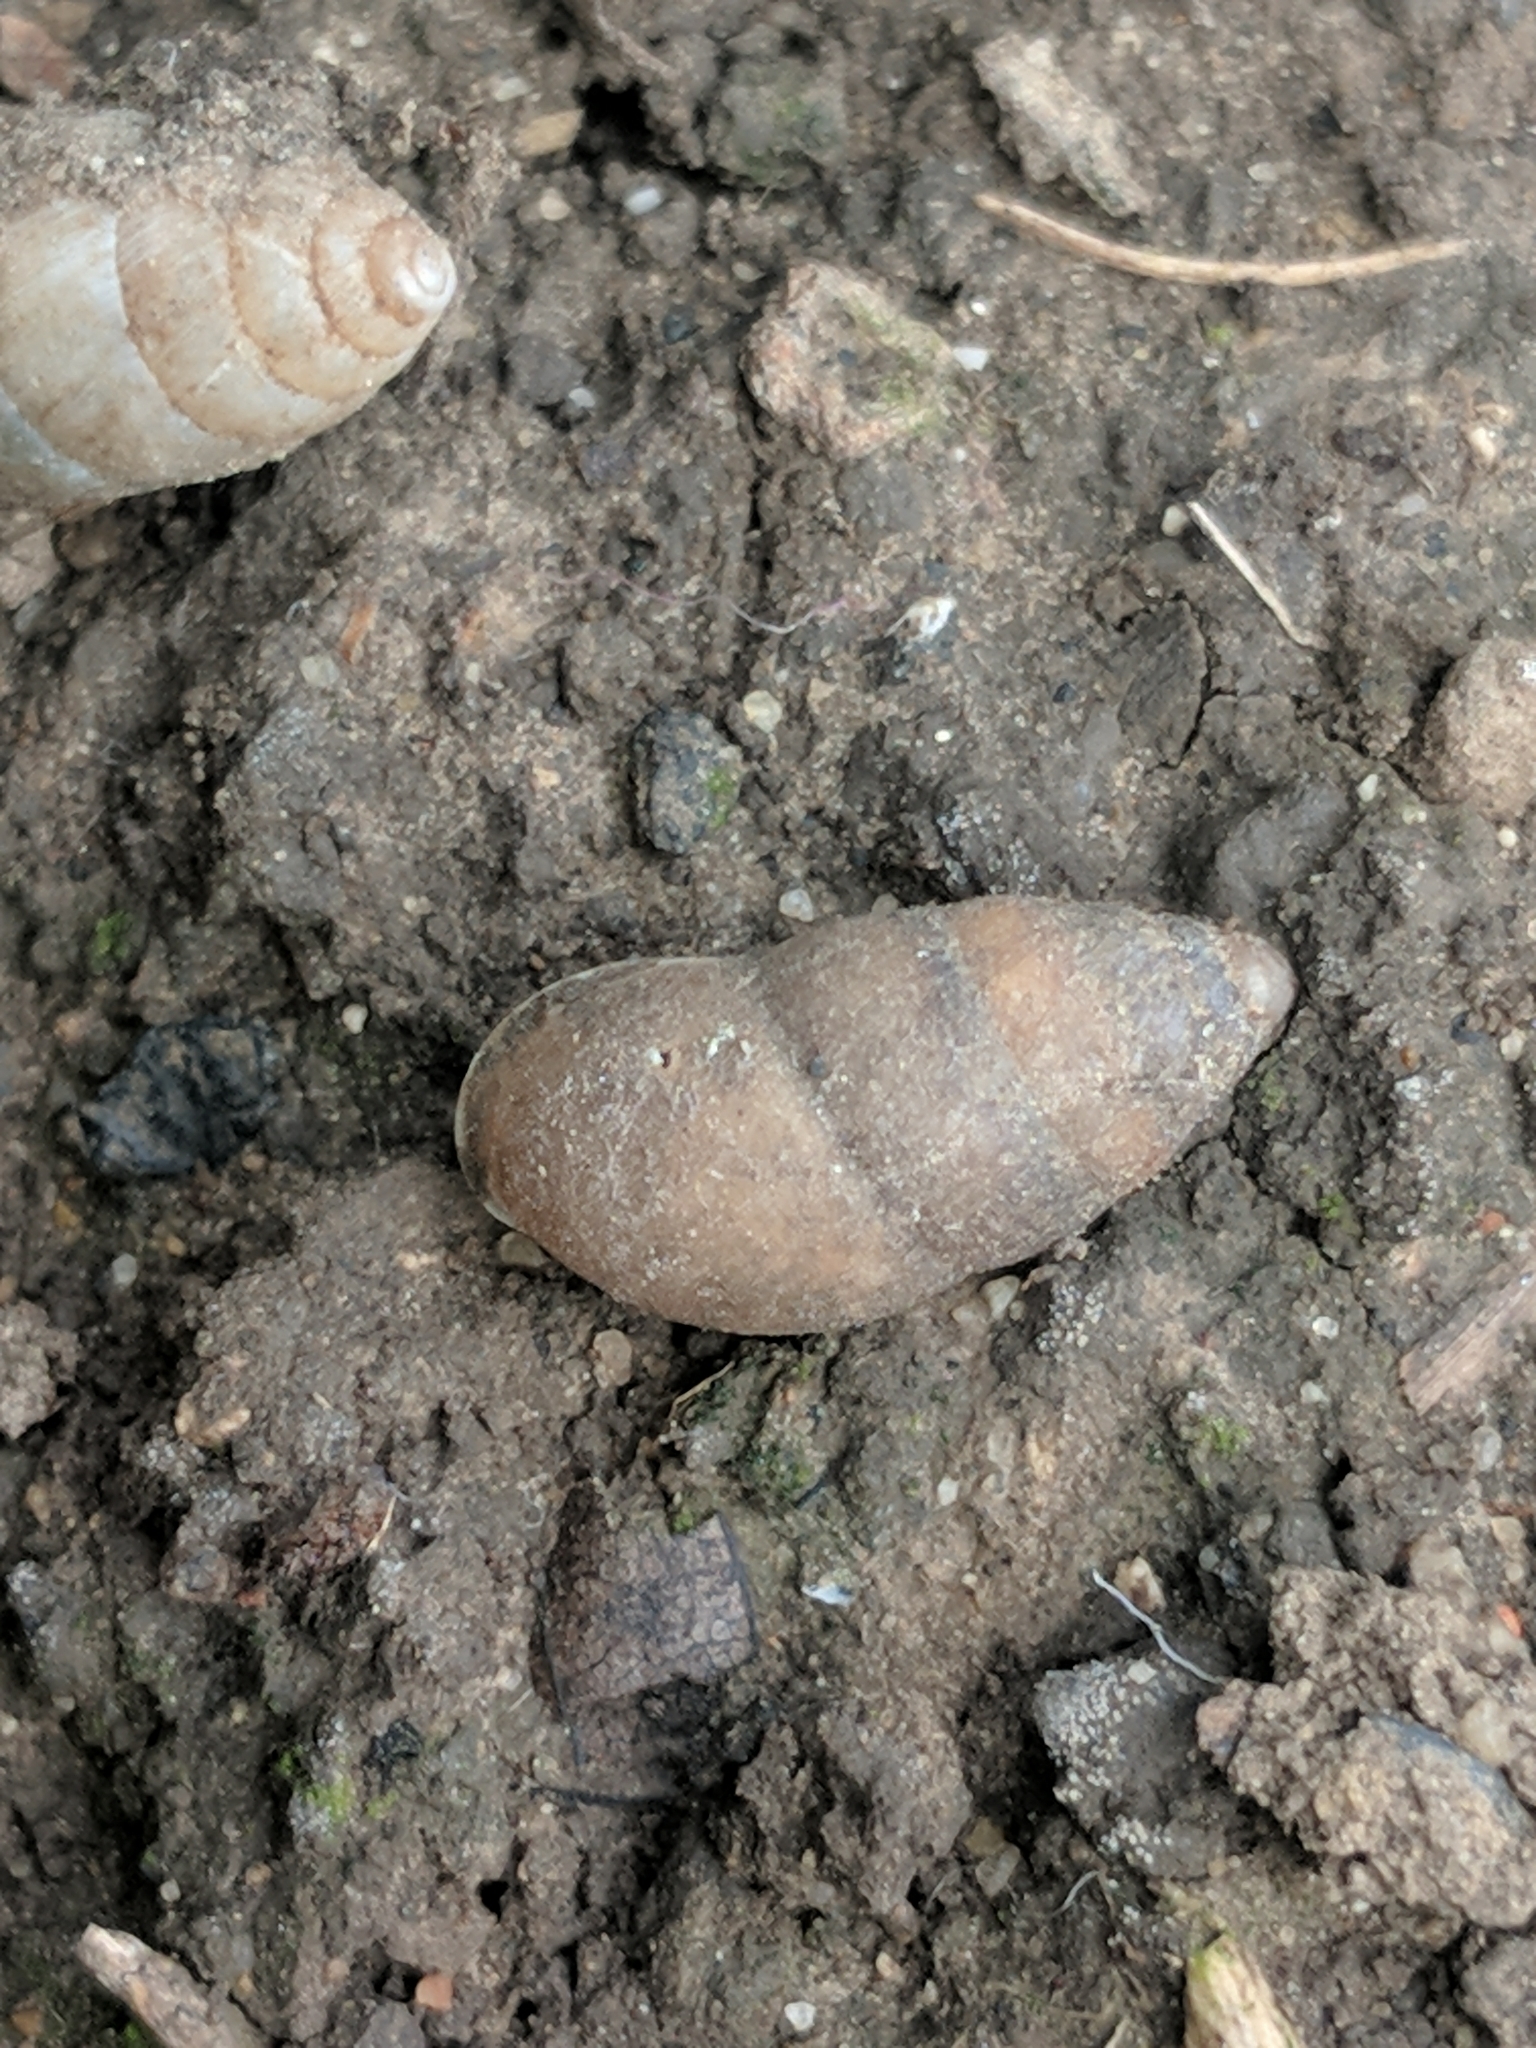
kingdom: Animalia
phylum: Mollusca
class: Gastropoda
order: Stylommatophora
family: Enidae
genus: Chondrula
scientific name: Chondrula tridens
